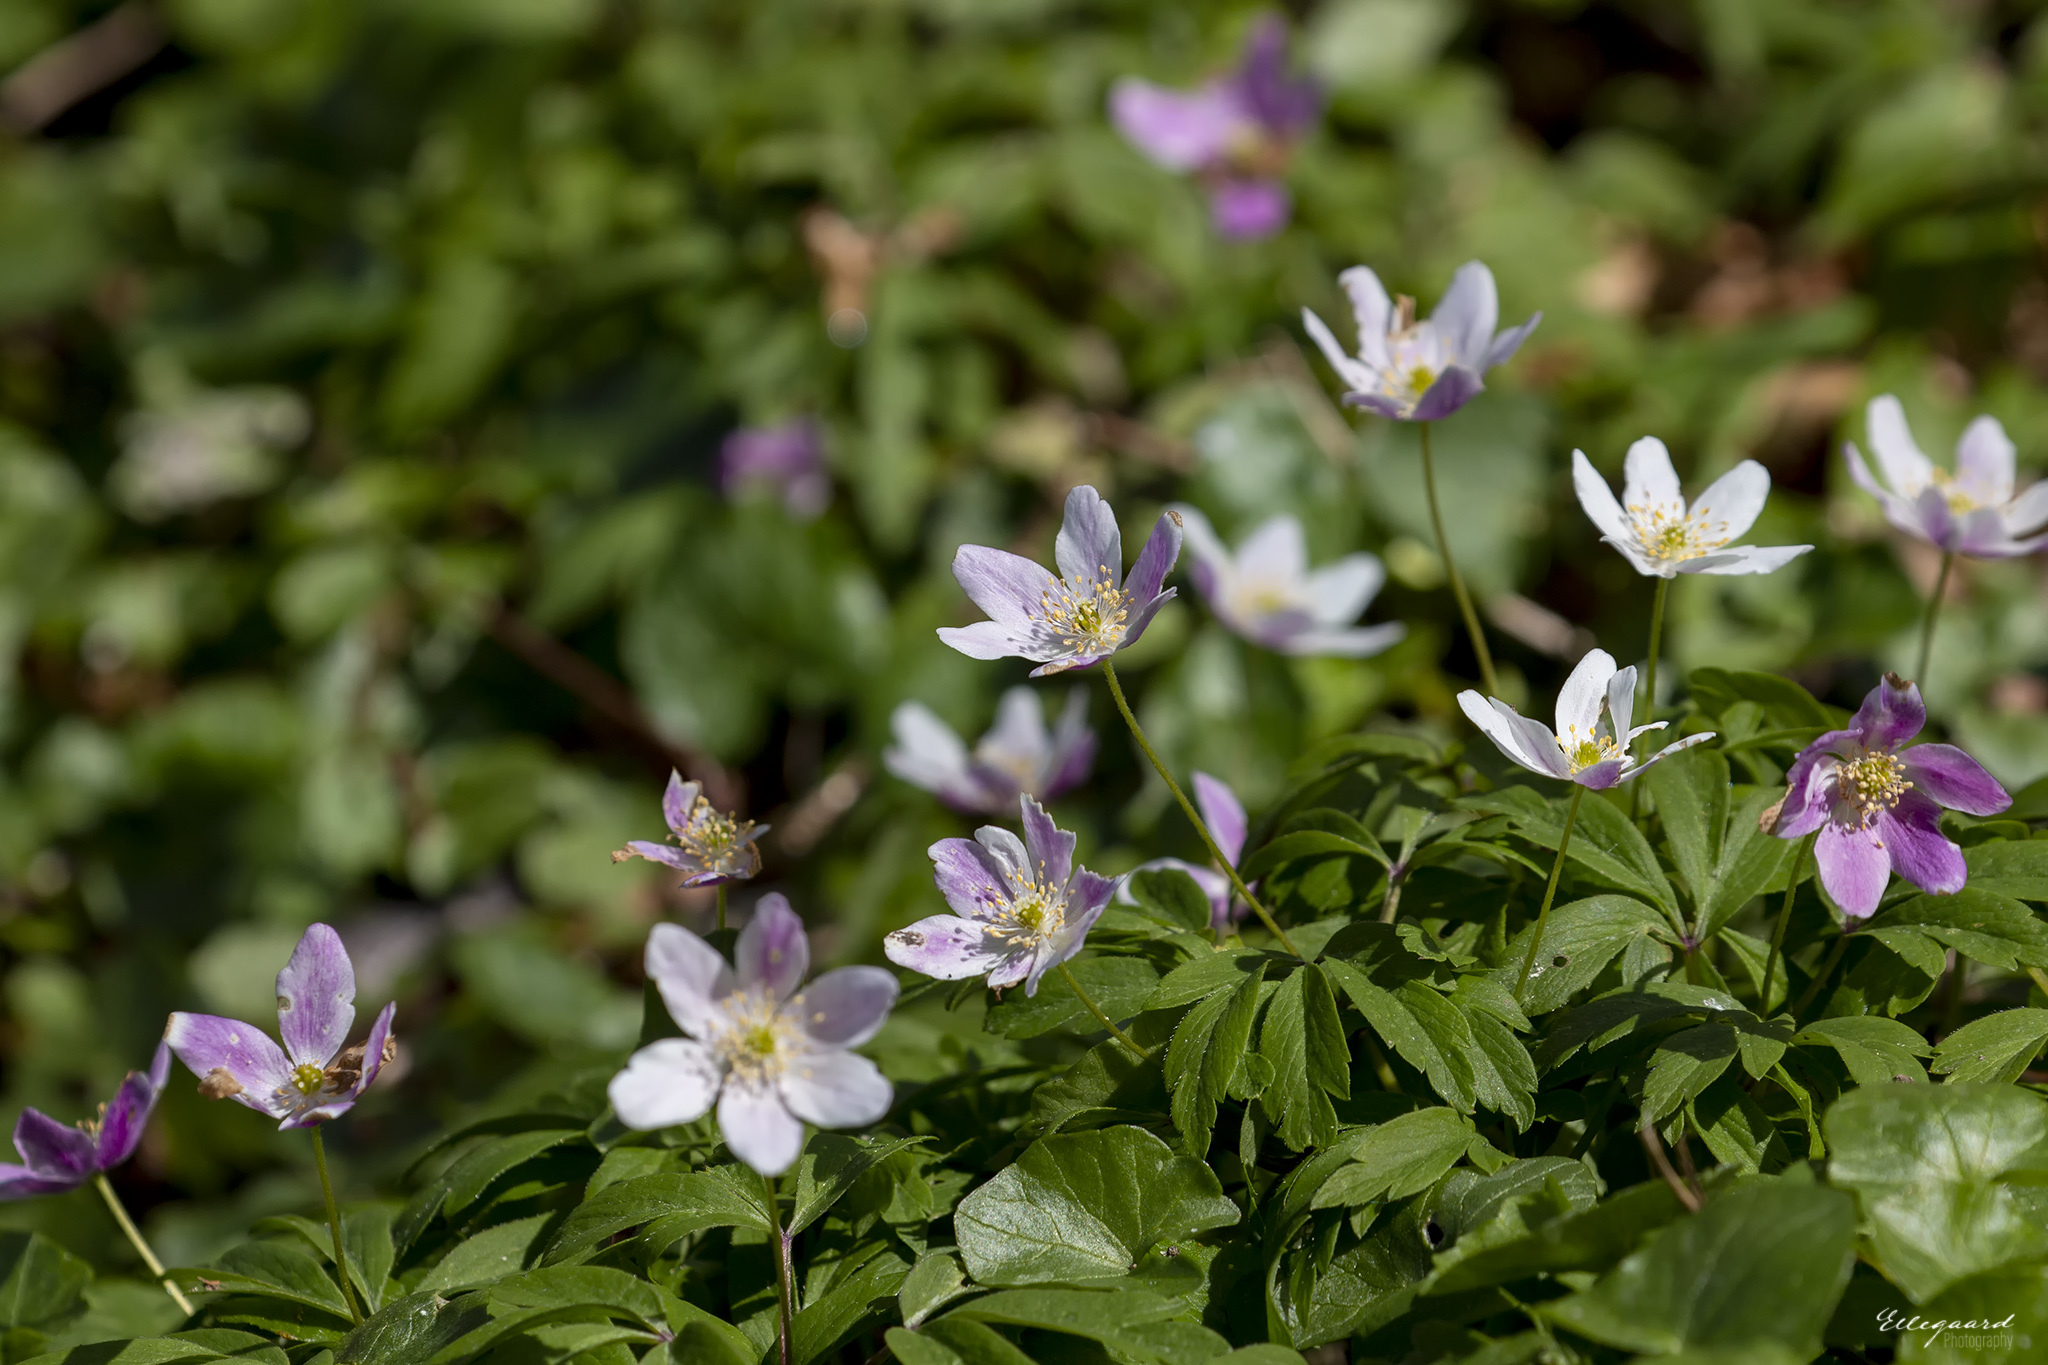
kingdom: Plantae
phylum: Tracheophyta
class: Magnoliopsida
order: Ranunculales
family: Ranunculaceae
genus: Anemone
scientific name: Anemone nemorosa
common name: Wood anemone
